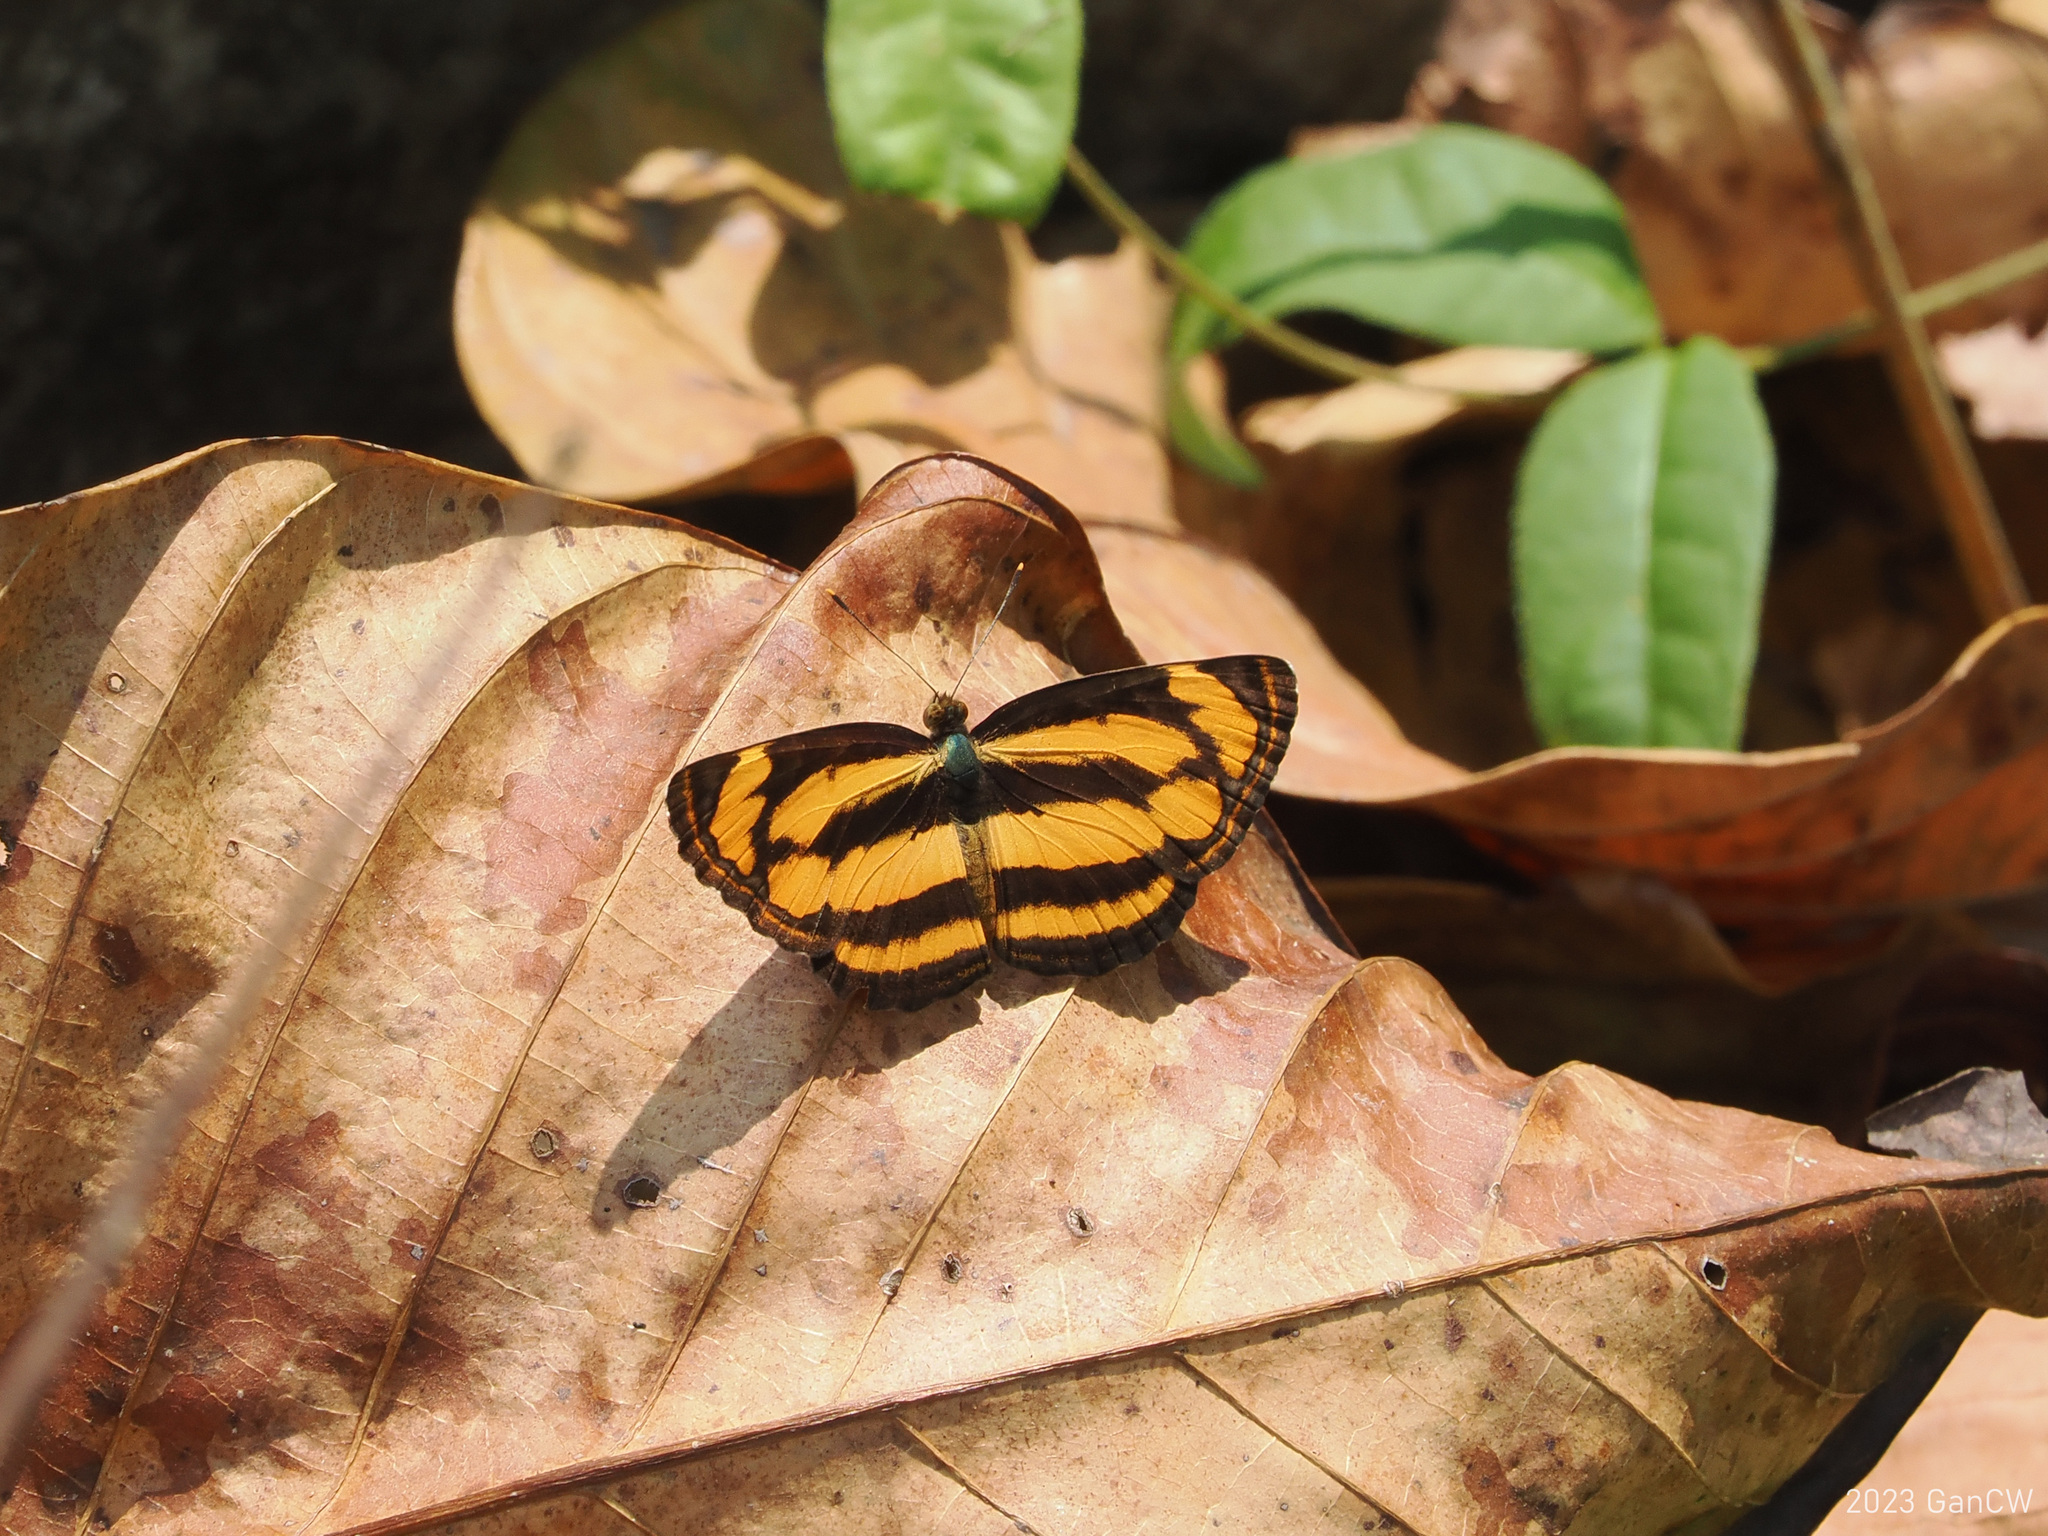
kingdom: Animalia
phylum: Arthropoda
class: Insecta
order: Lepidoptera
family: Nymphalidae
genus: Pantoporia
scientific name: Pantoporia hordonia
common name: Common lascar
